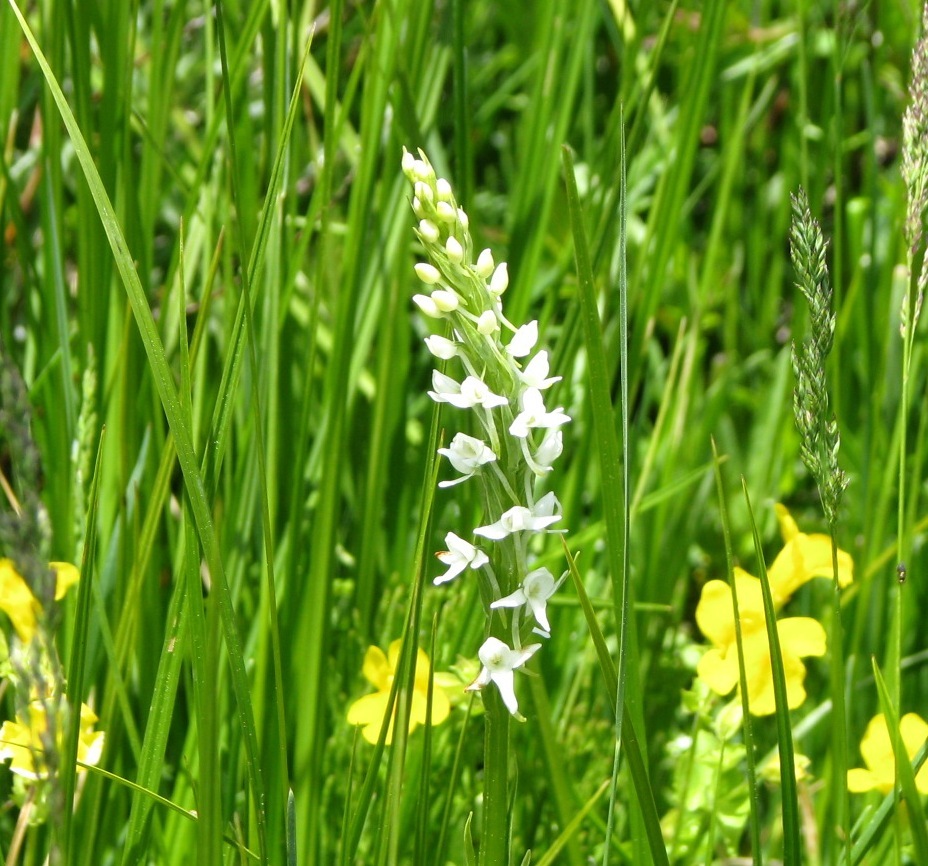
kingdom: Plantae
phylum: Tracheophyta
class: Liliopsida
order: Asparagales
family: Orchidaceae
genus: Platanthera
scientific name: Platanthera dilatata
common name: Bog candles
